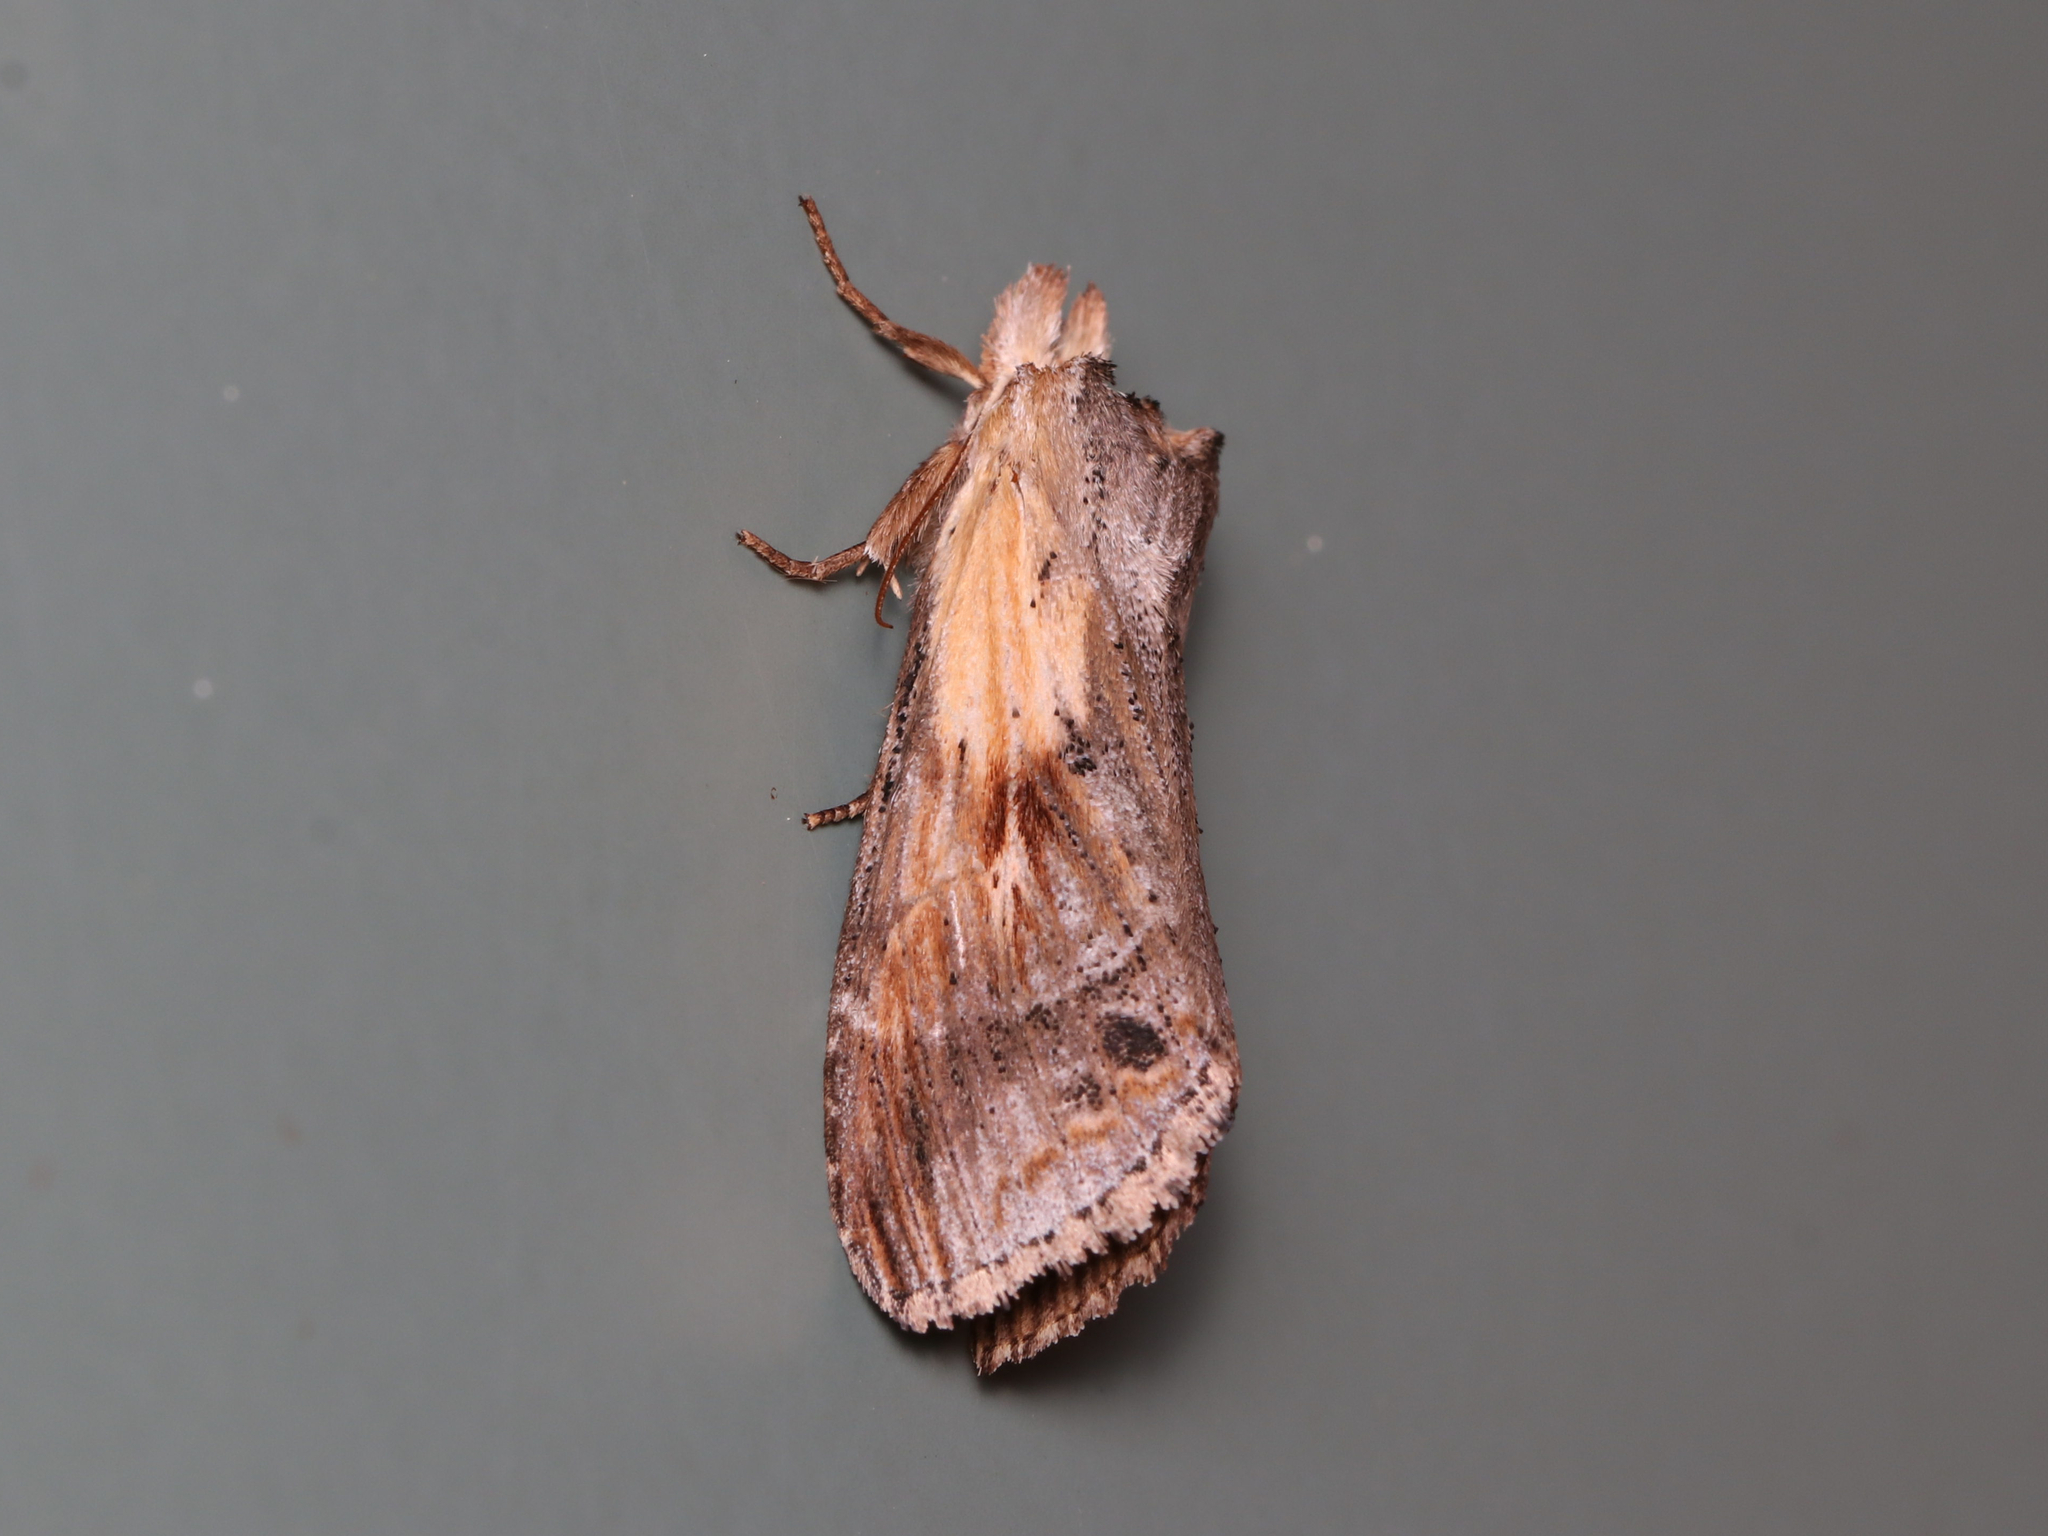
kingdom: Animalia
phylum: Arthropoda
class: Insecta
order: Lepidoptera
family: Notodontidae
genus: Dasylophia
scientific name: Dasylophia anguina
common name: Black-spotted prominent
